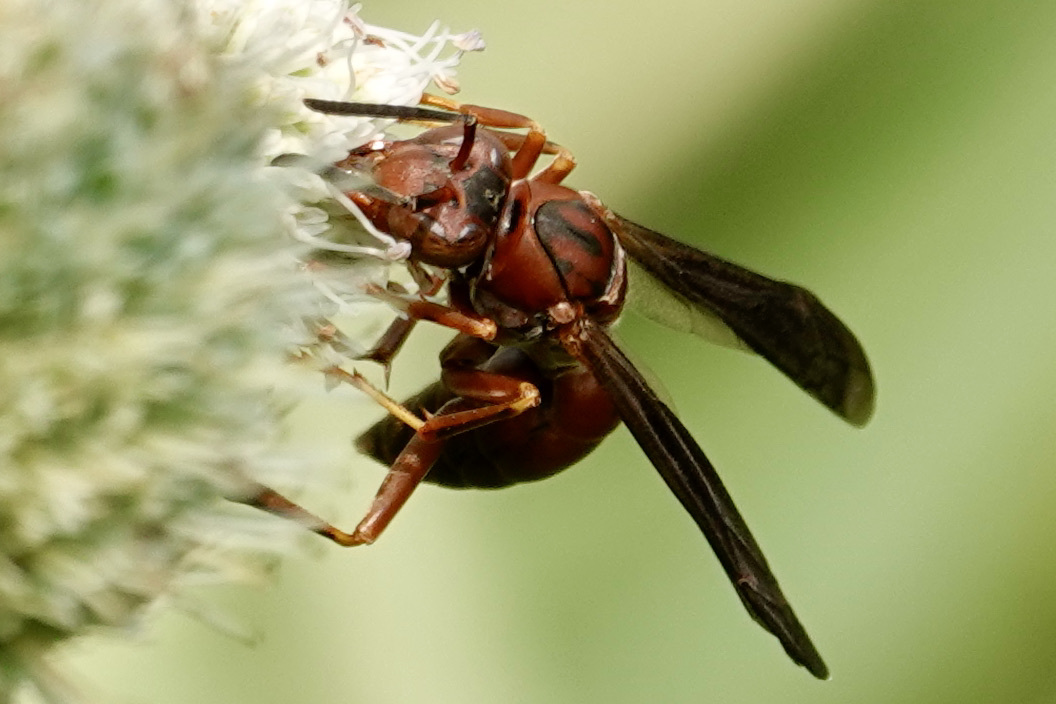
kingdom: Animalia
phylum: Arthropoda
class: Insecta
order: Hymenoptera
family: Eumenidae
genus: Polistes
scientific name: Polistes metricus
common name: Metric paper wasp
